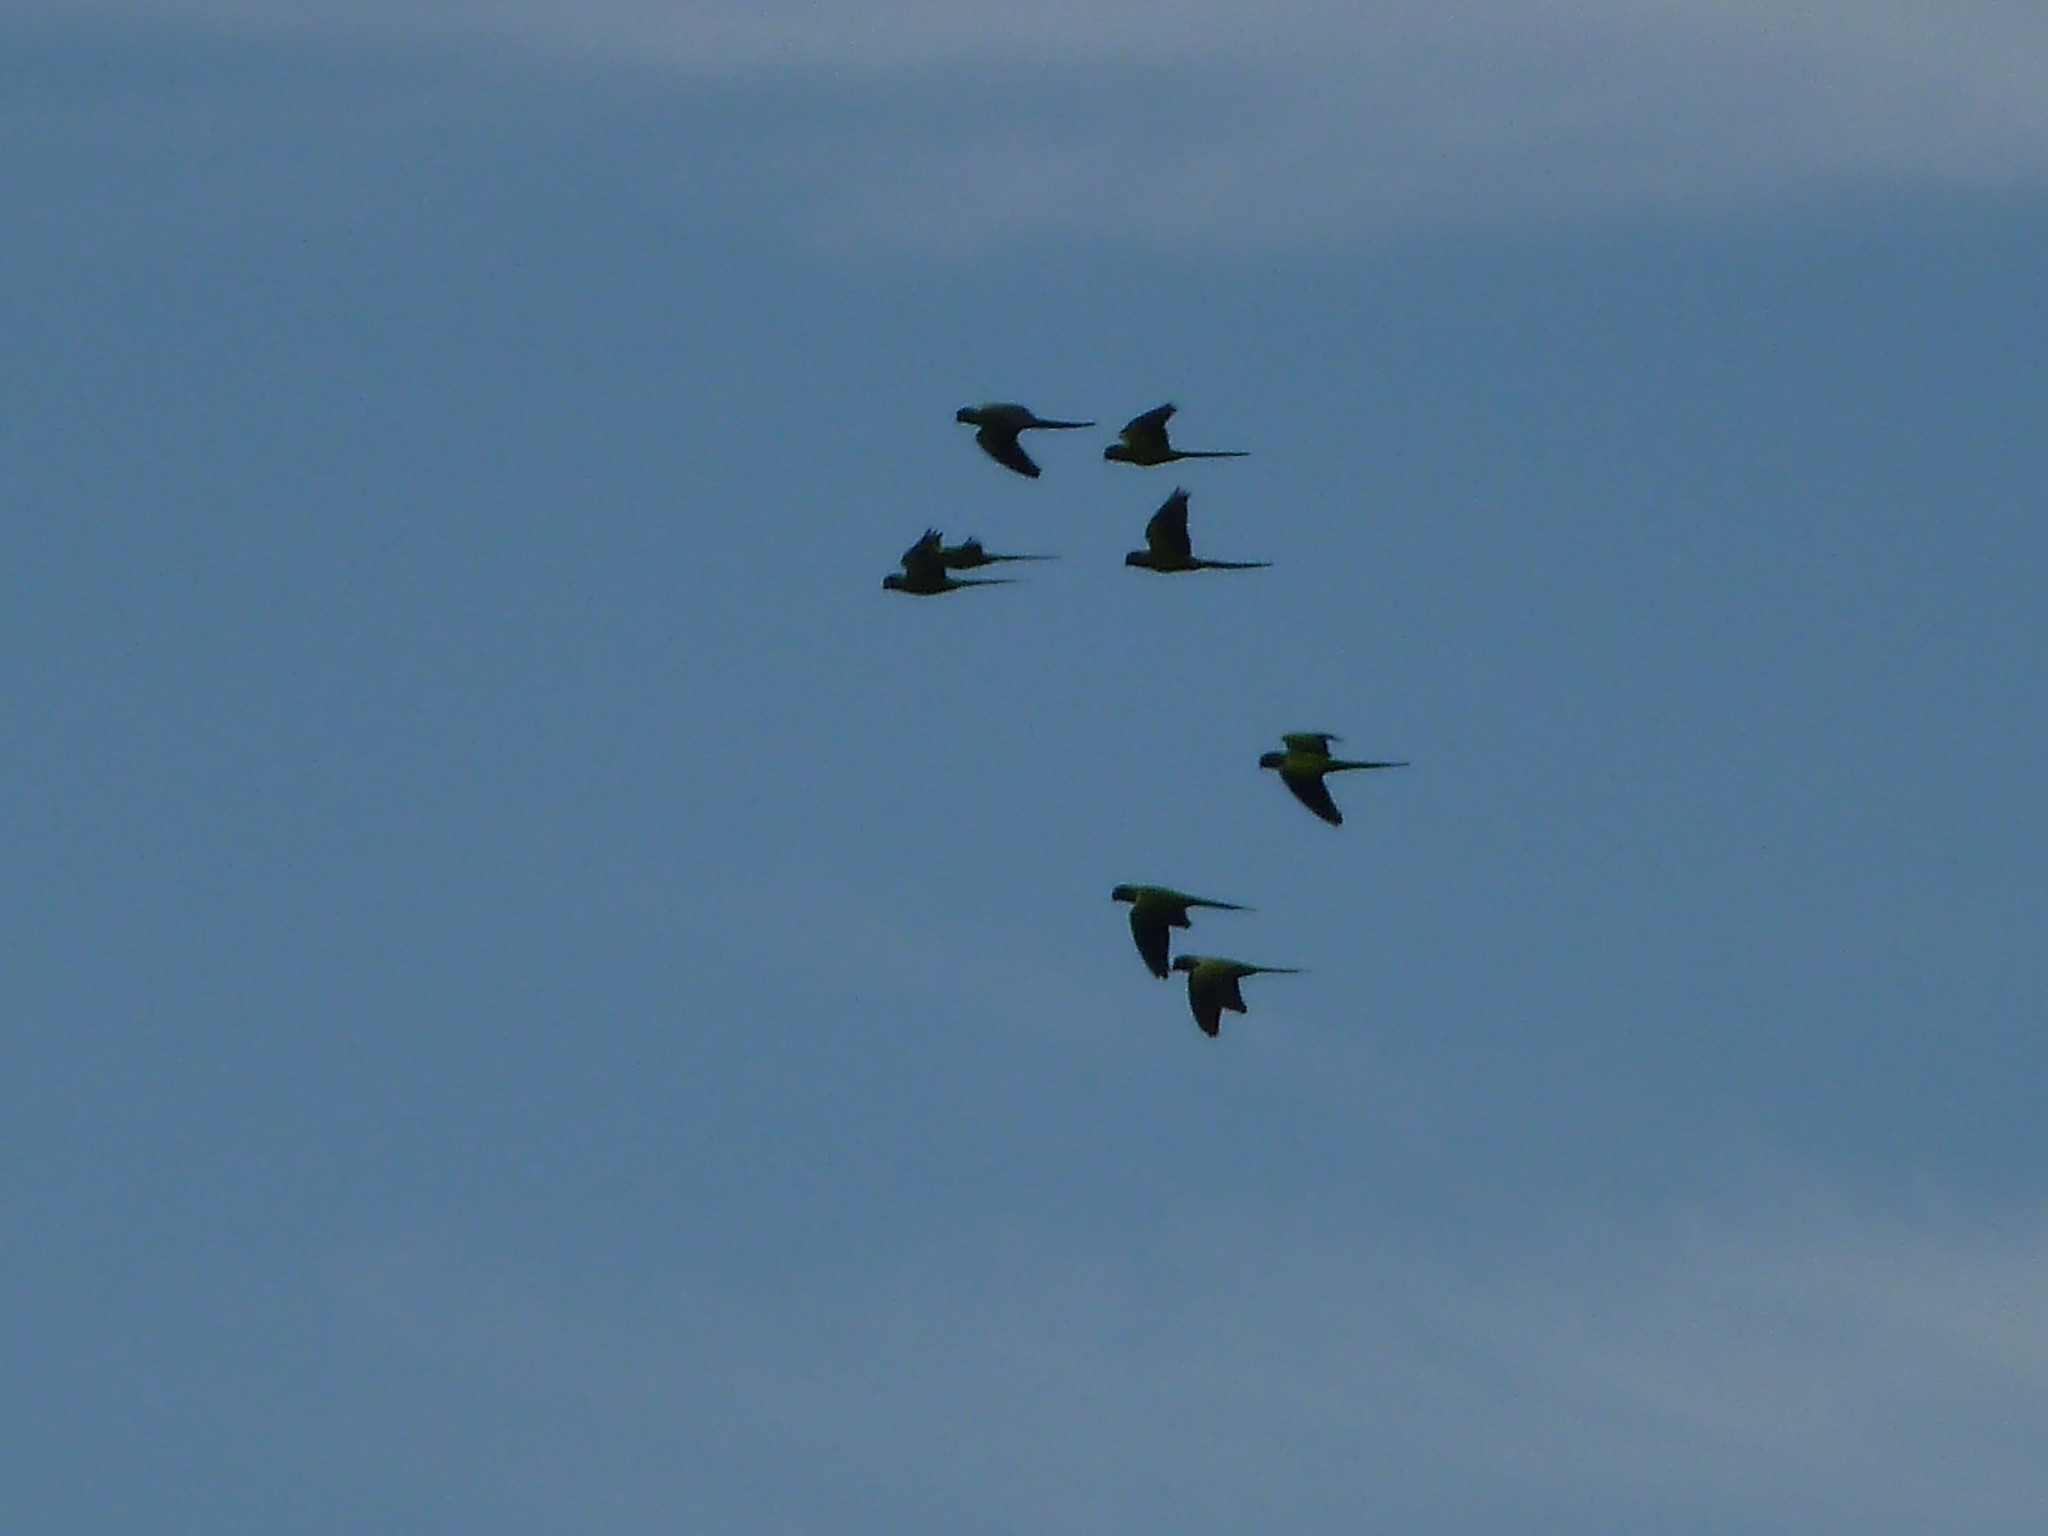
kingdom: Animalia
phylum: Chordata
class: Aves
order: Psittaciformes
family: Psittacidae
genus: Nandayus
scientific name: Nandayus nenday
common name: Nanday parakeet
